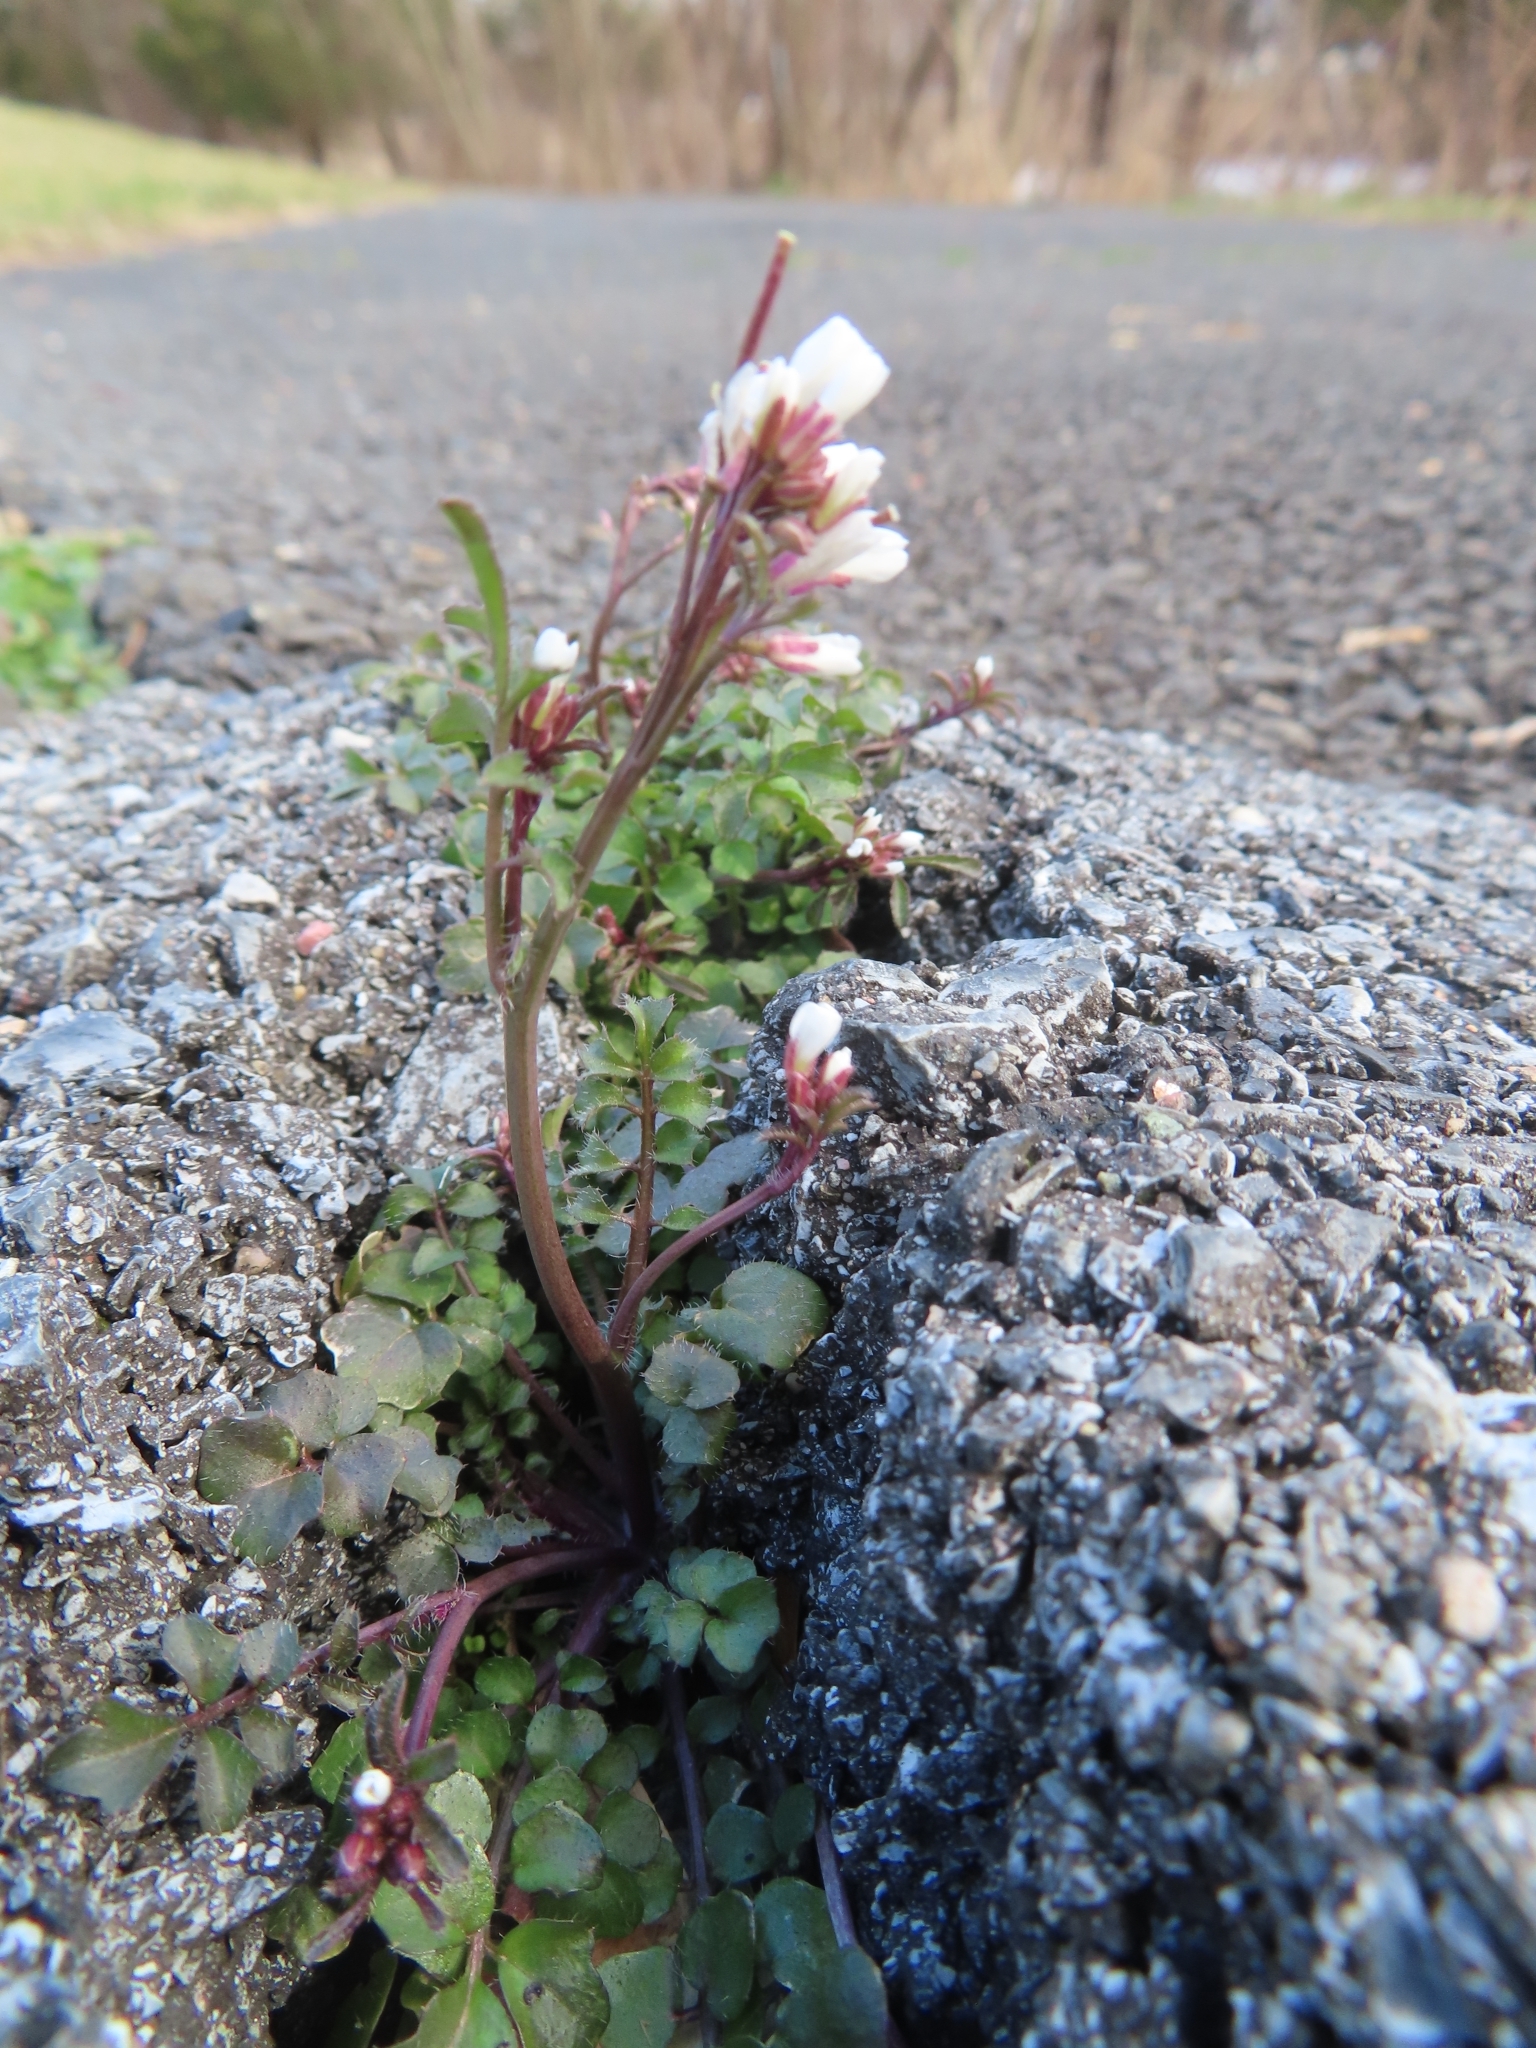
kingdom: Plantae
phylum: Tracheophyta
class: Magnoliopsida
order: Brassicales
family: Brassicaceae
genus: Cardamine
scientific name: Cardamine hirsuta
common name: Hairy bittercress
